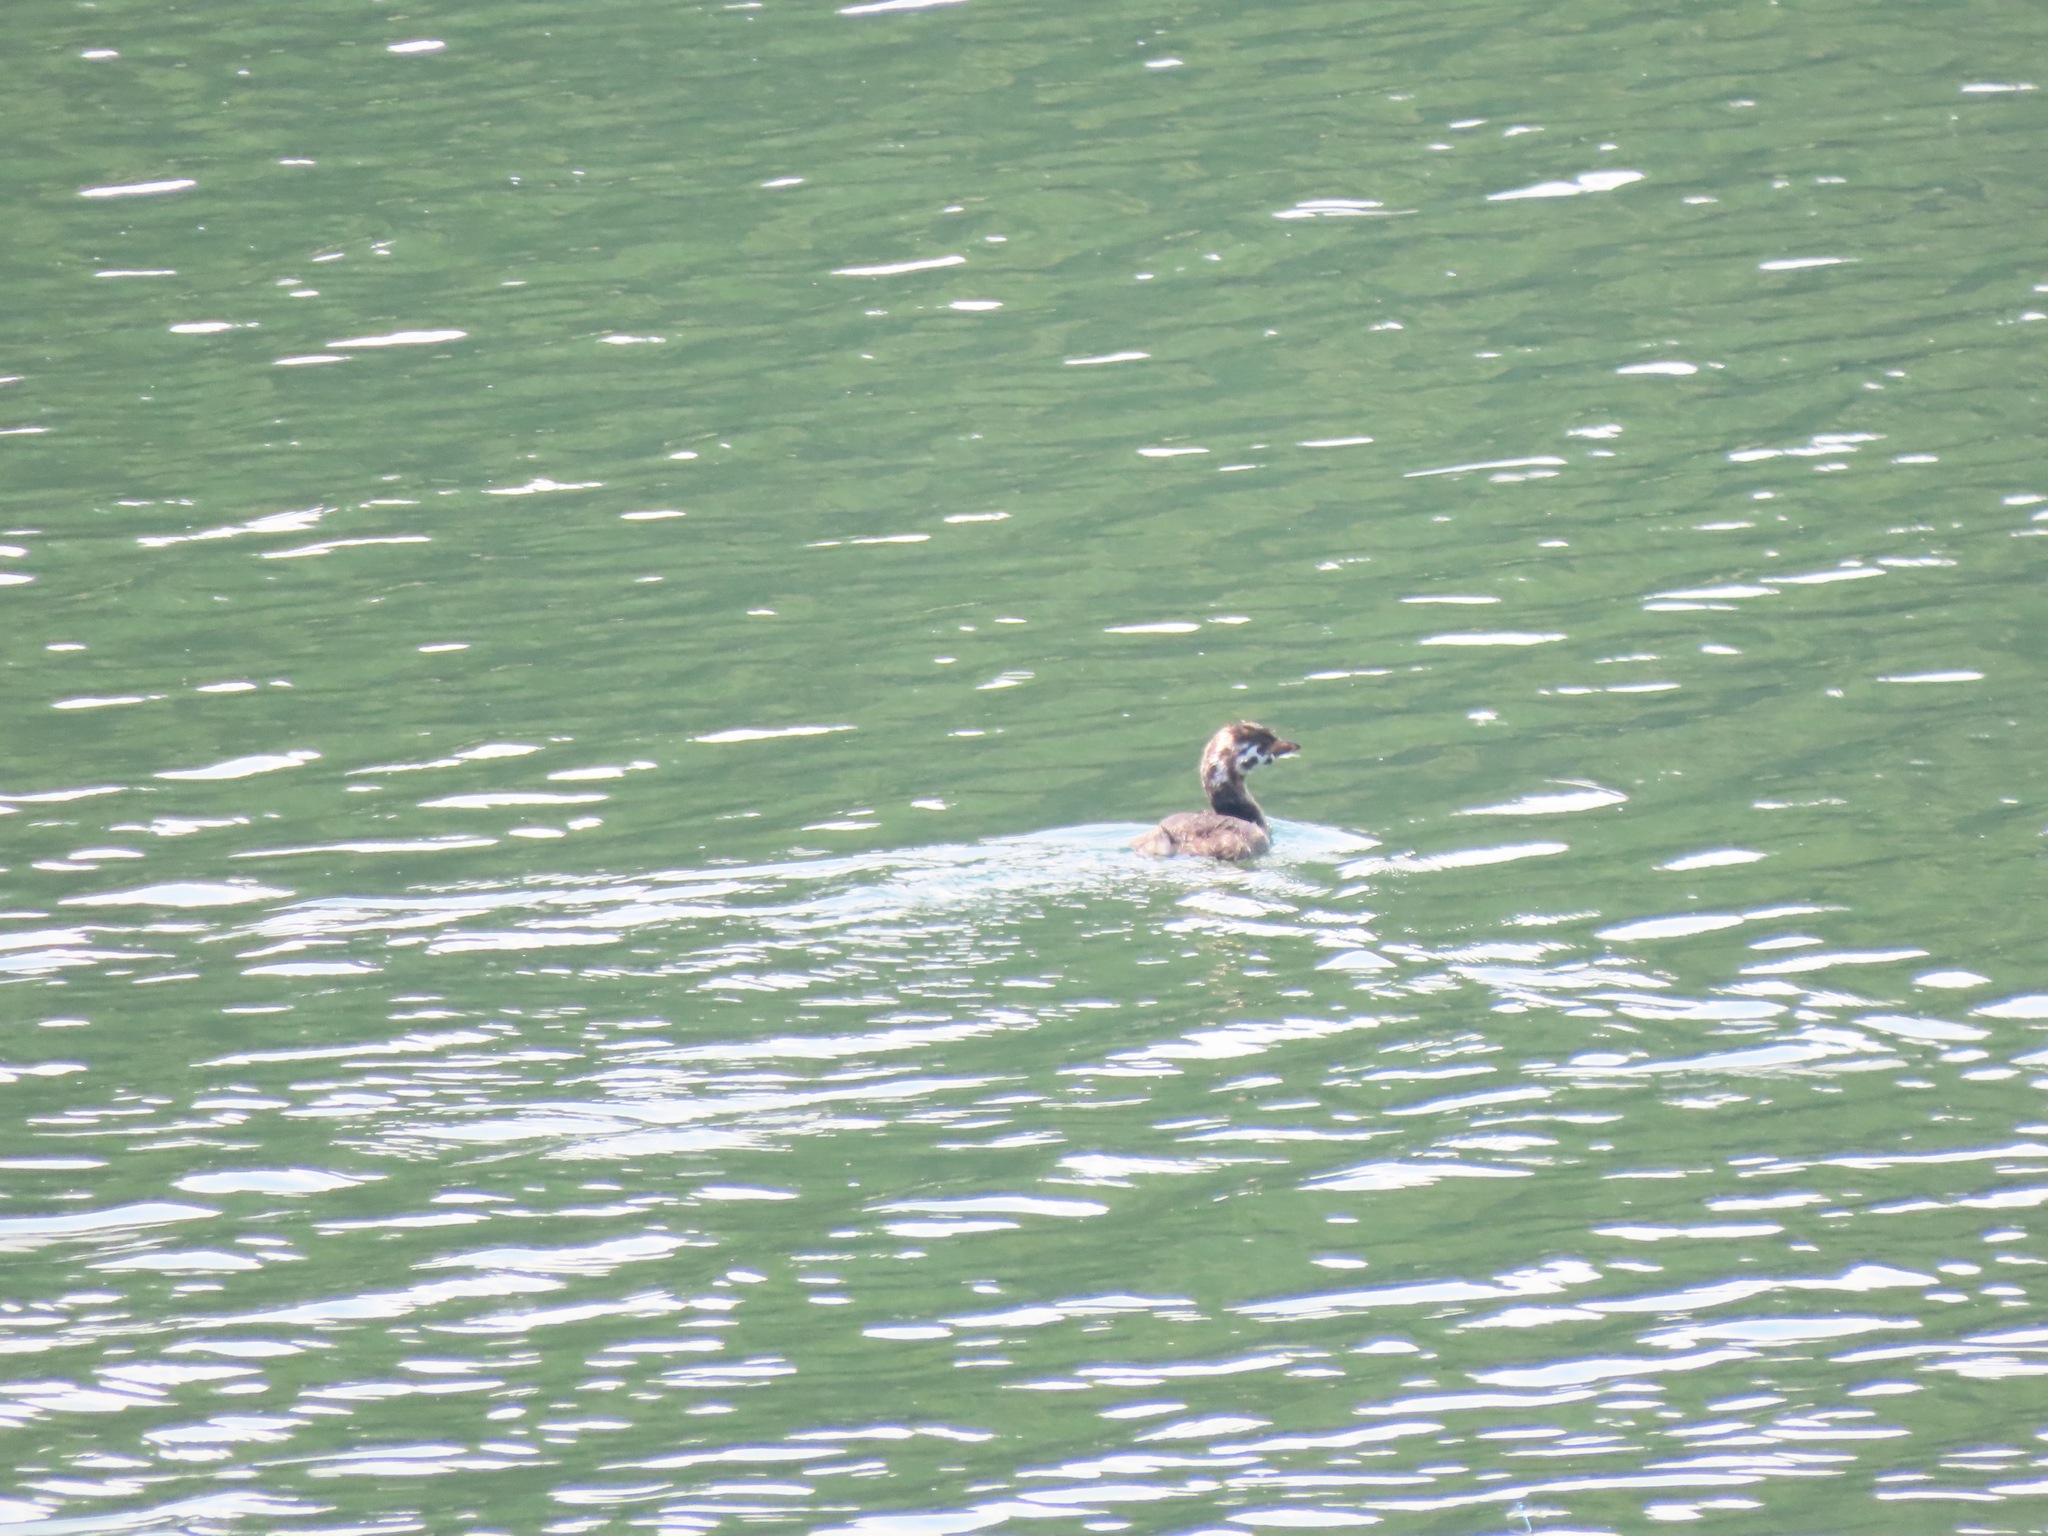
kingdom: Animalia
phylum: Chordata
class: Aves
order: Podicipediformes
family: Podicipedidae
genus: Podilymbus
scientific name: Podilymbus podiceps
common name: Pied-billed grebe
